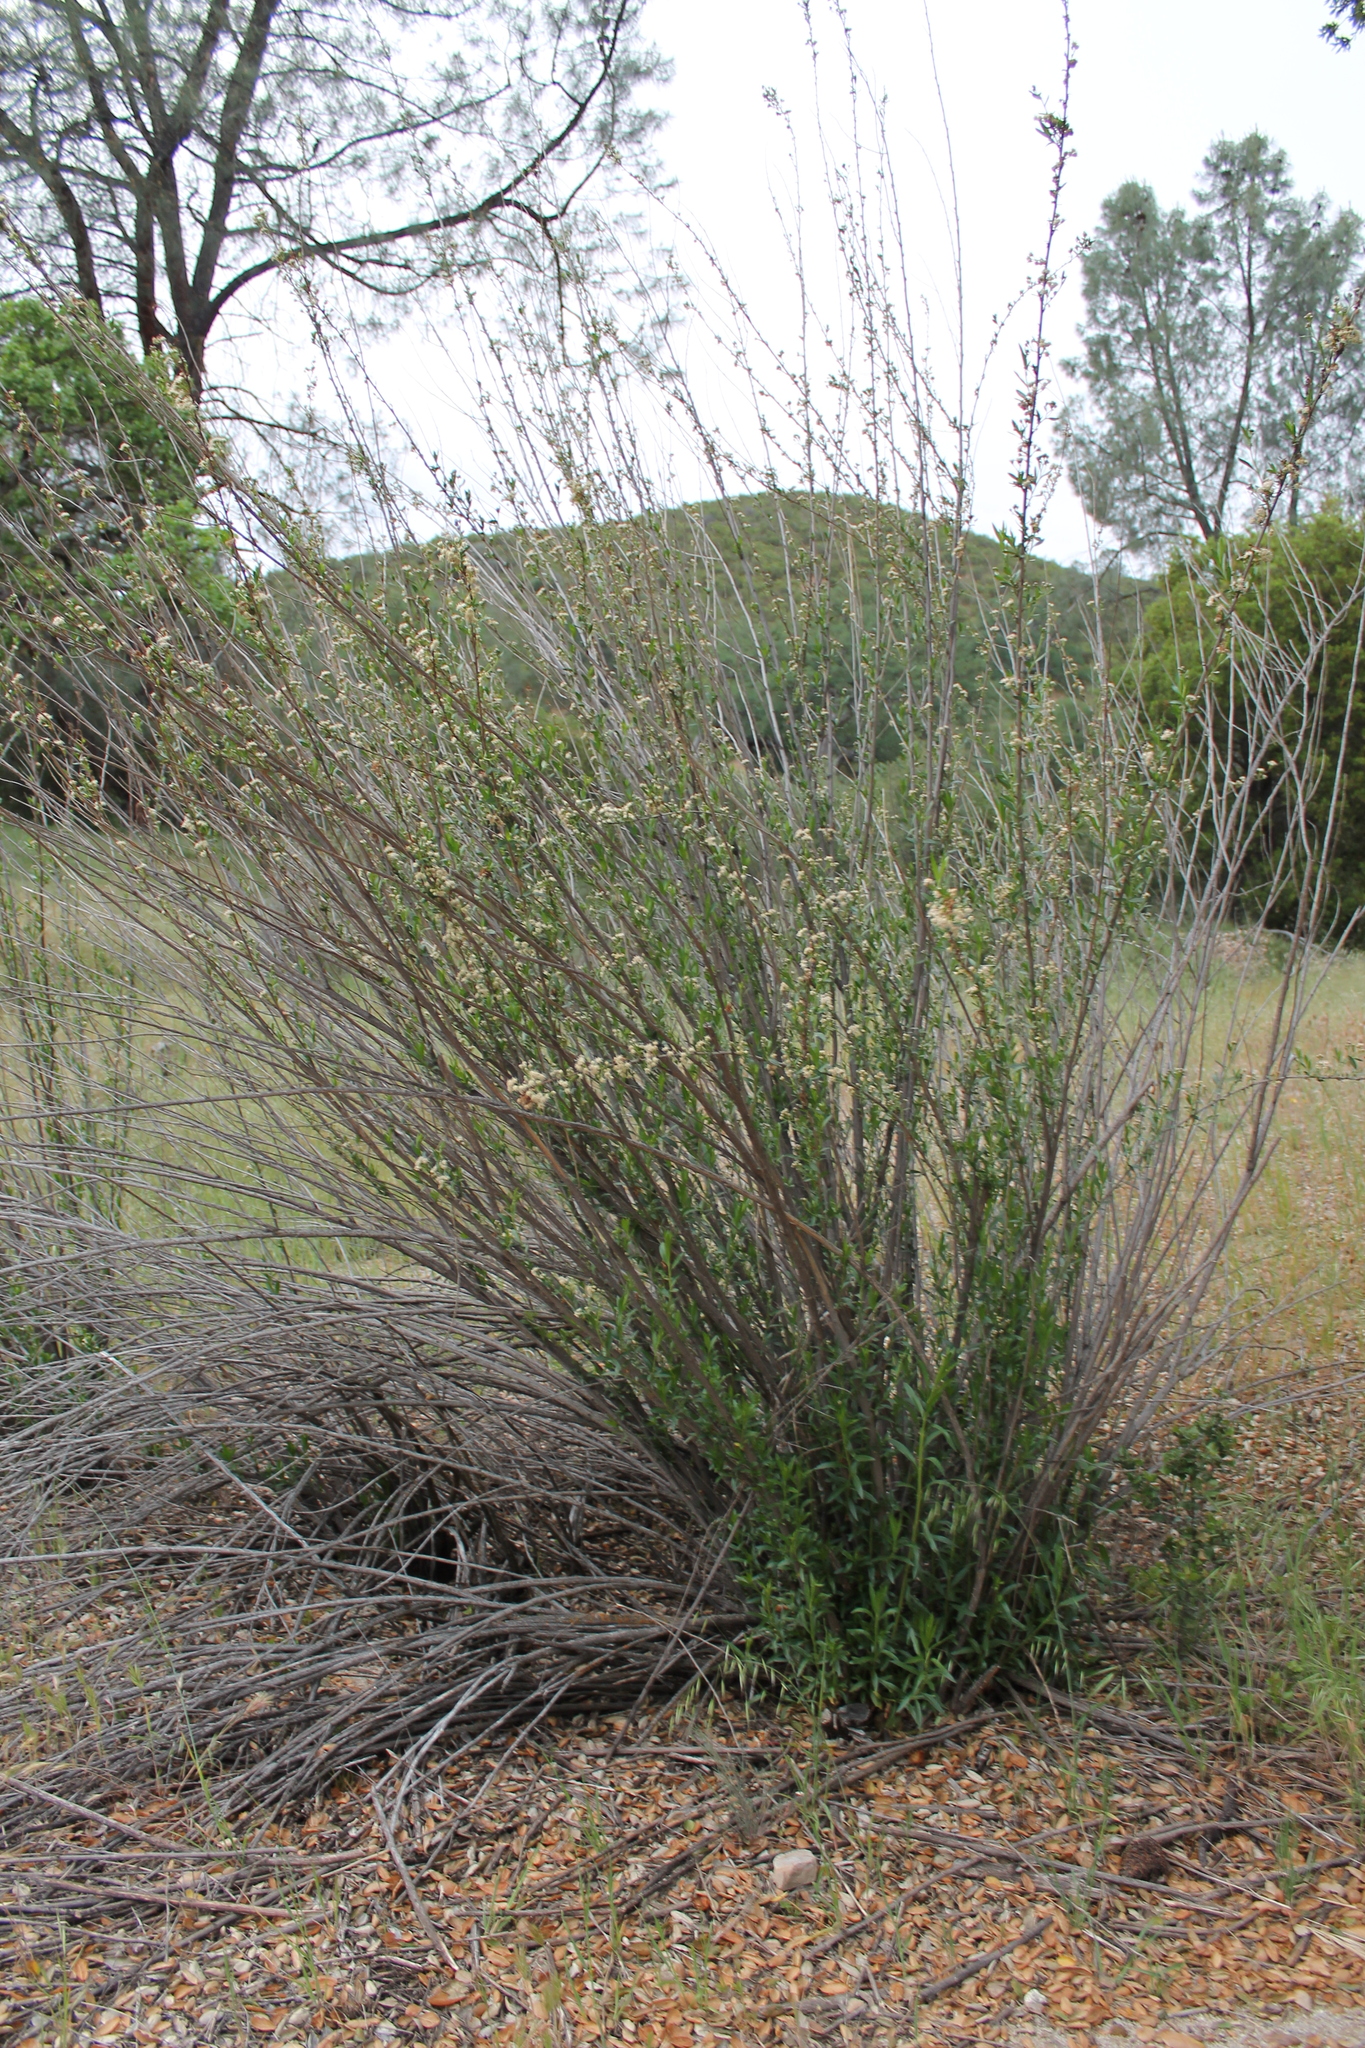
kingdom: Plantae
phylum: Tracheophyta
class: Magnoliopsida
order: Asterales
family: Asteraceae
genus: Baccharis
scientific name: Baccharis salicifolia
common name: Sticky baccharis
